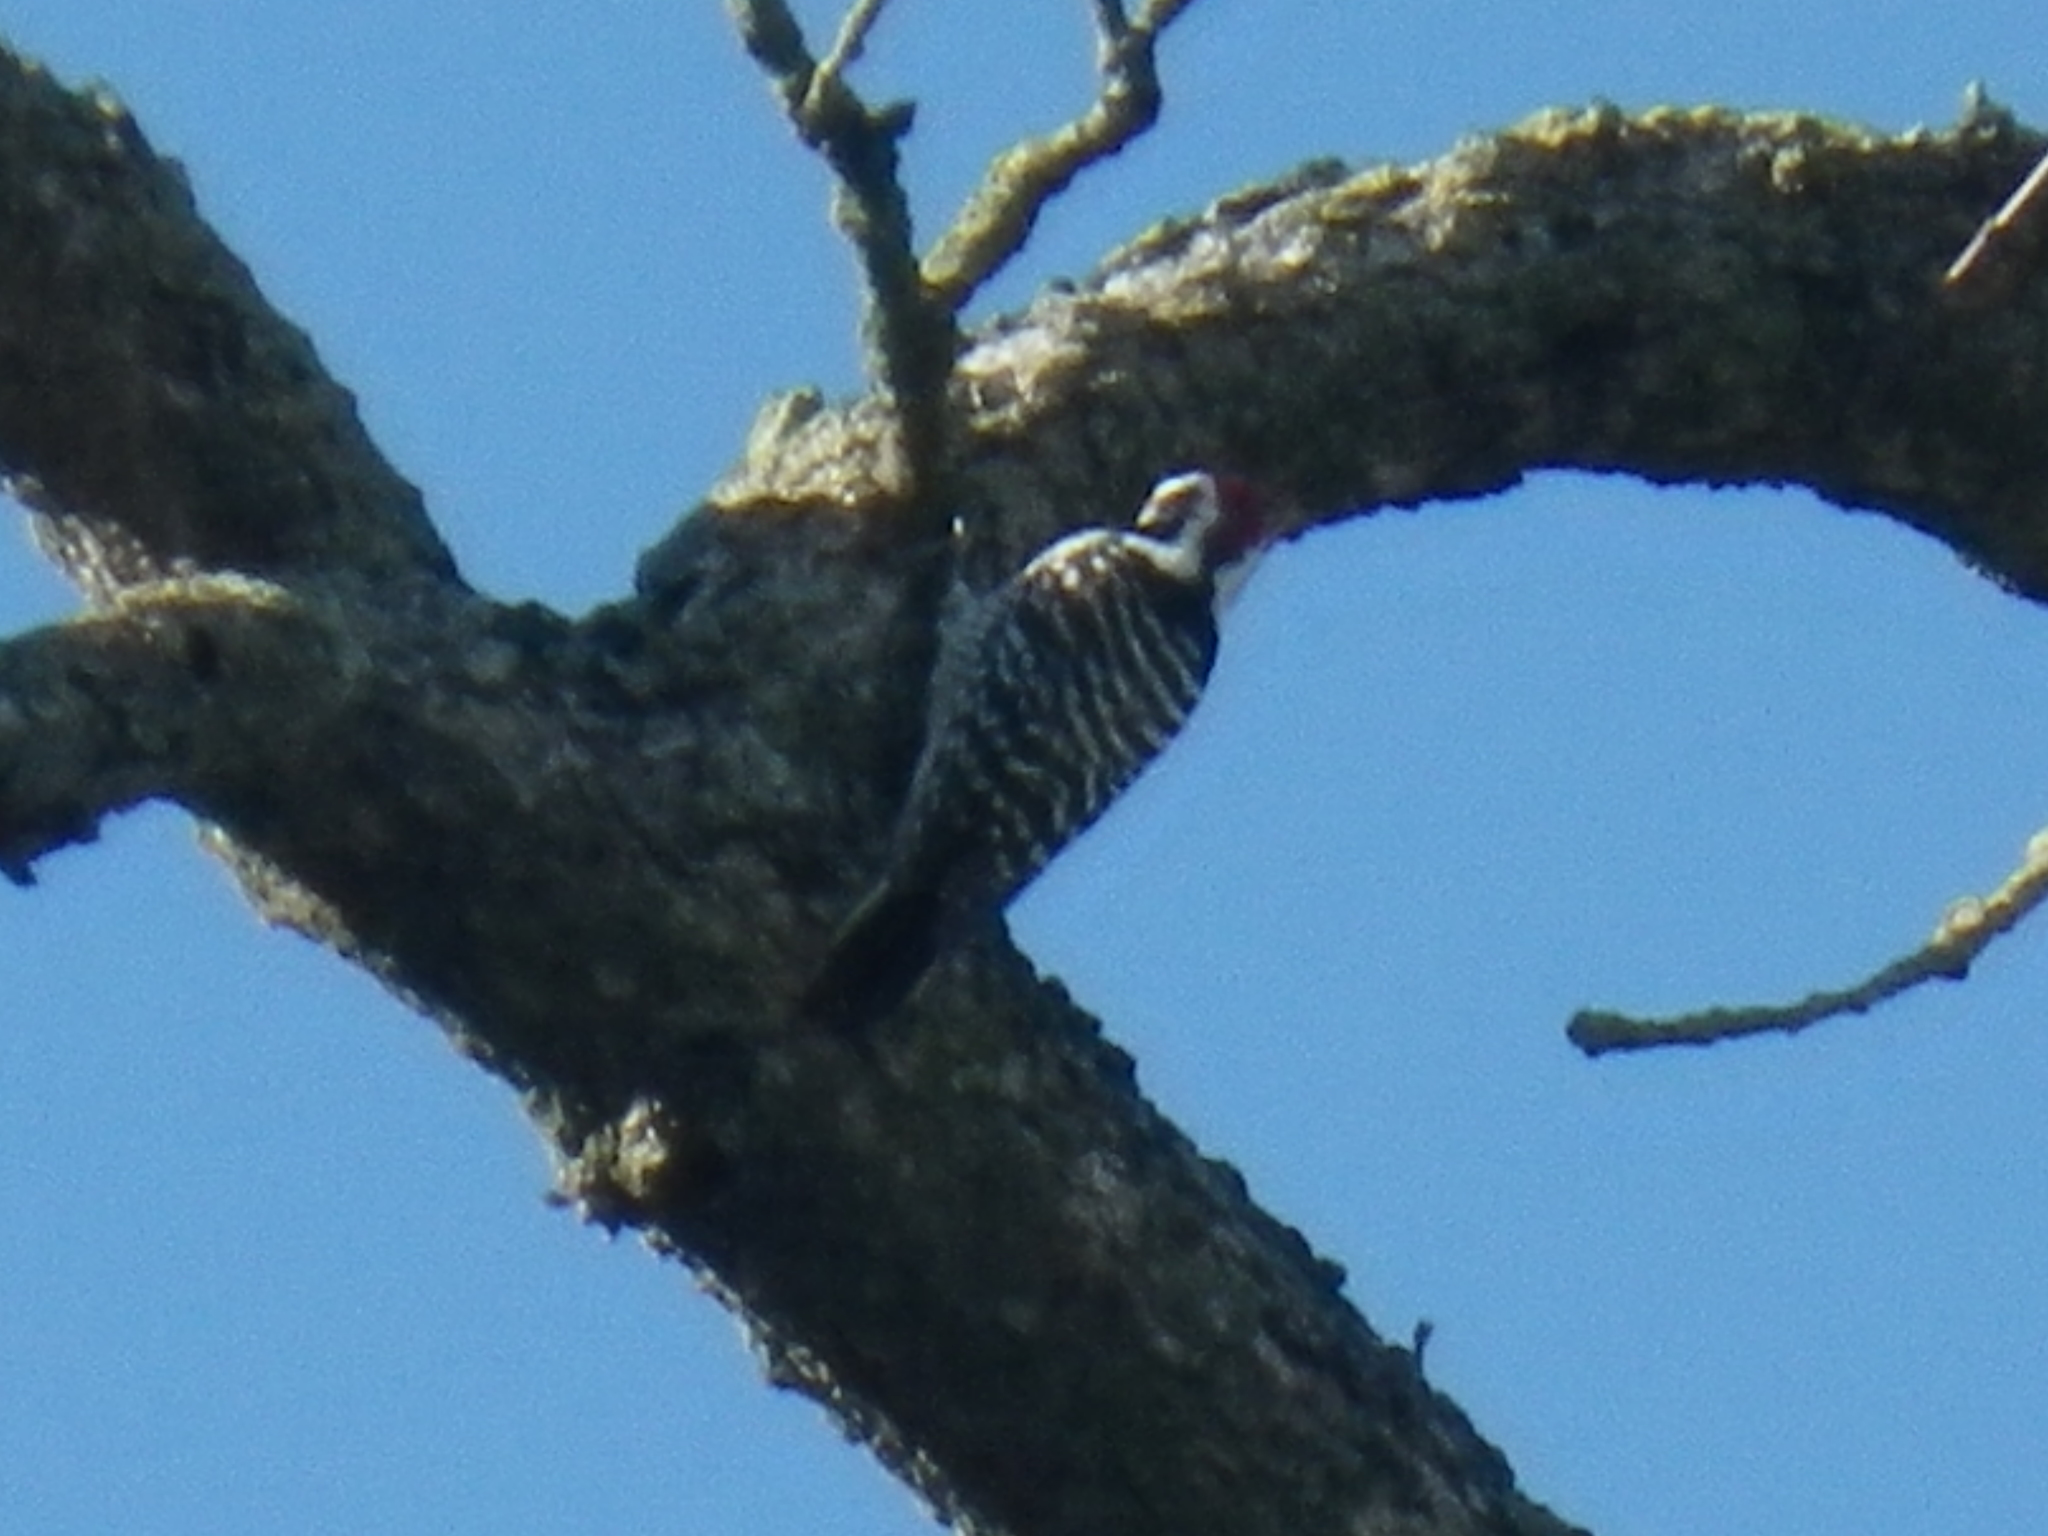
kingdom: Animalia
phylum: Chordata
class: Aves
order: Piciformes
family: Picidae
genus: Dryobates
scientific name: Dryobates nuttallii
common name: Nuttall's woodpecker
